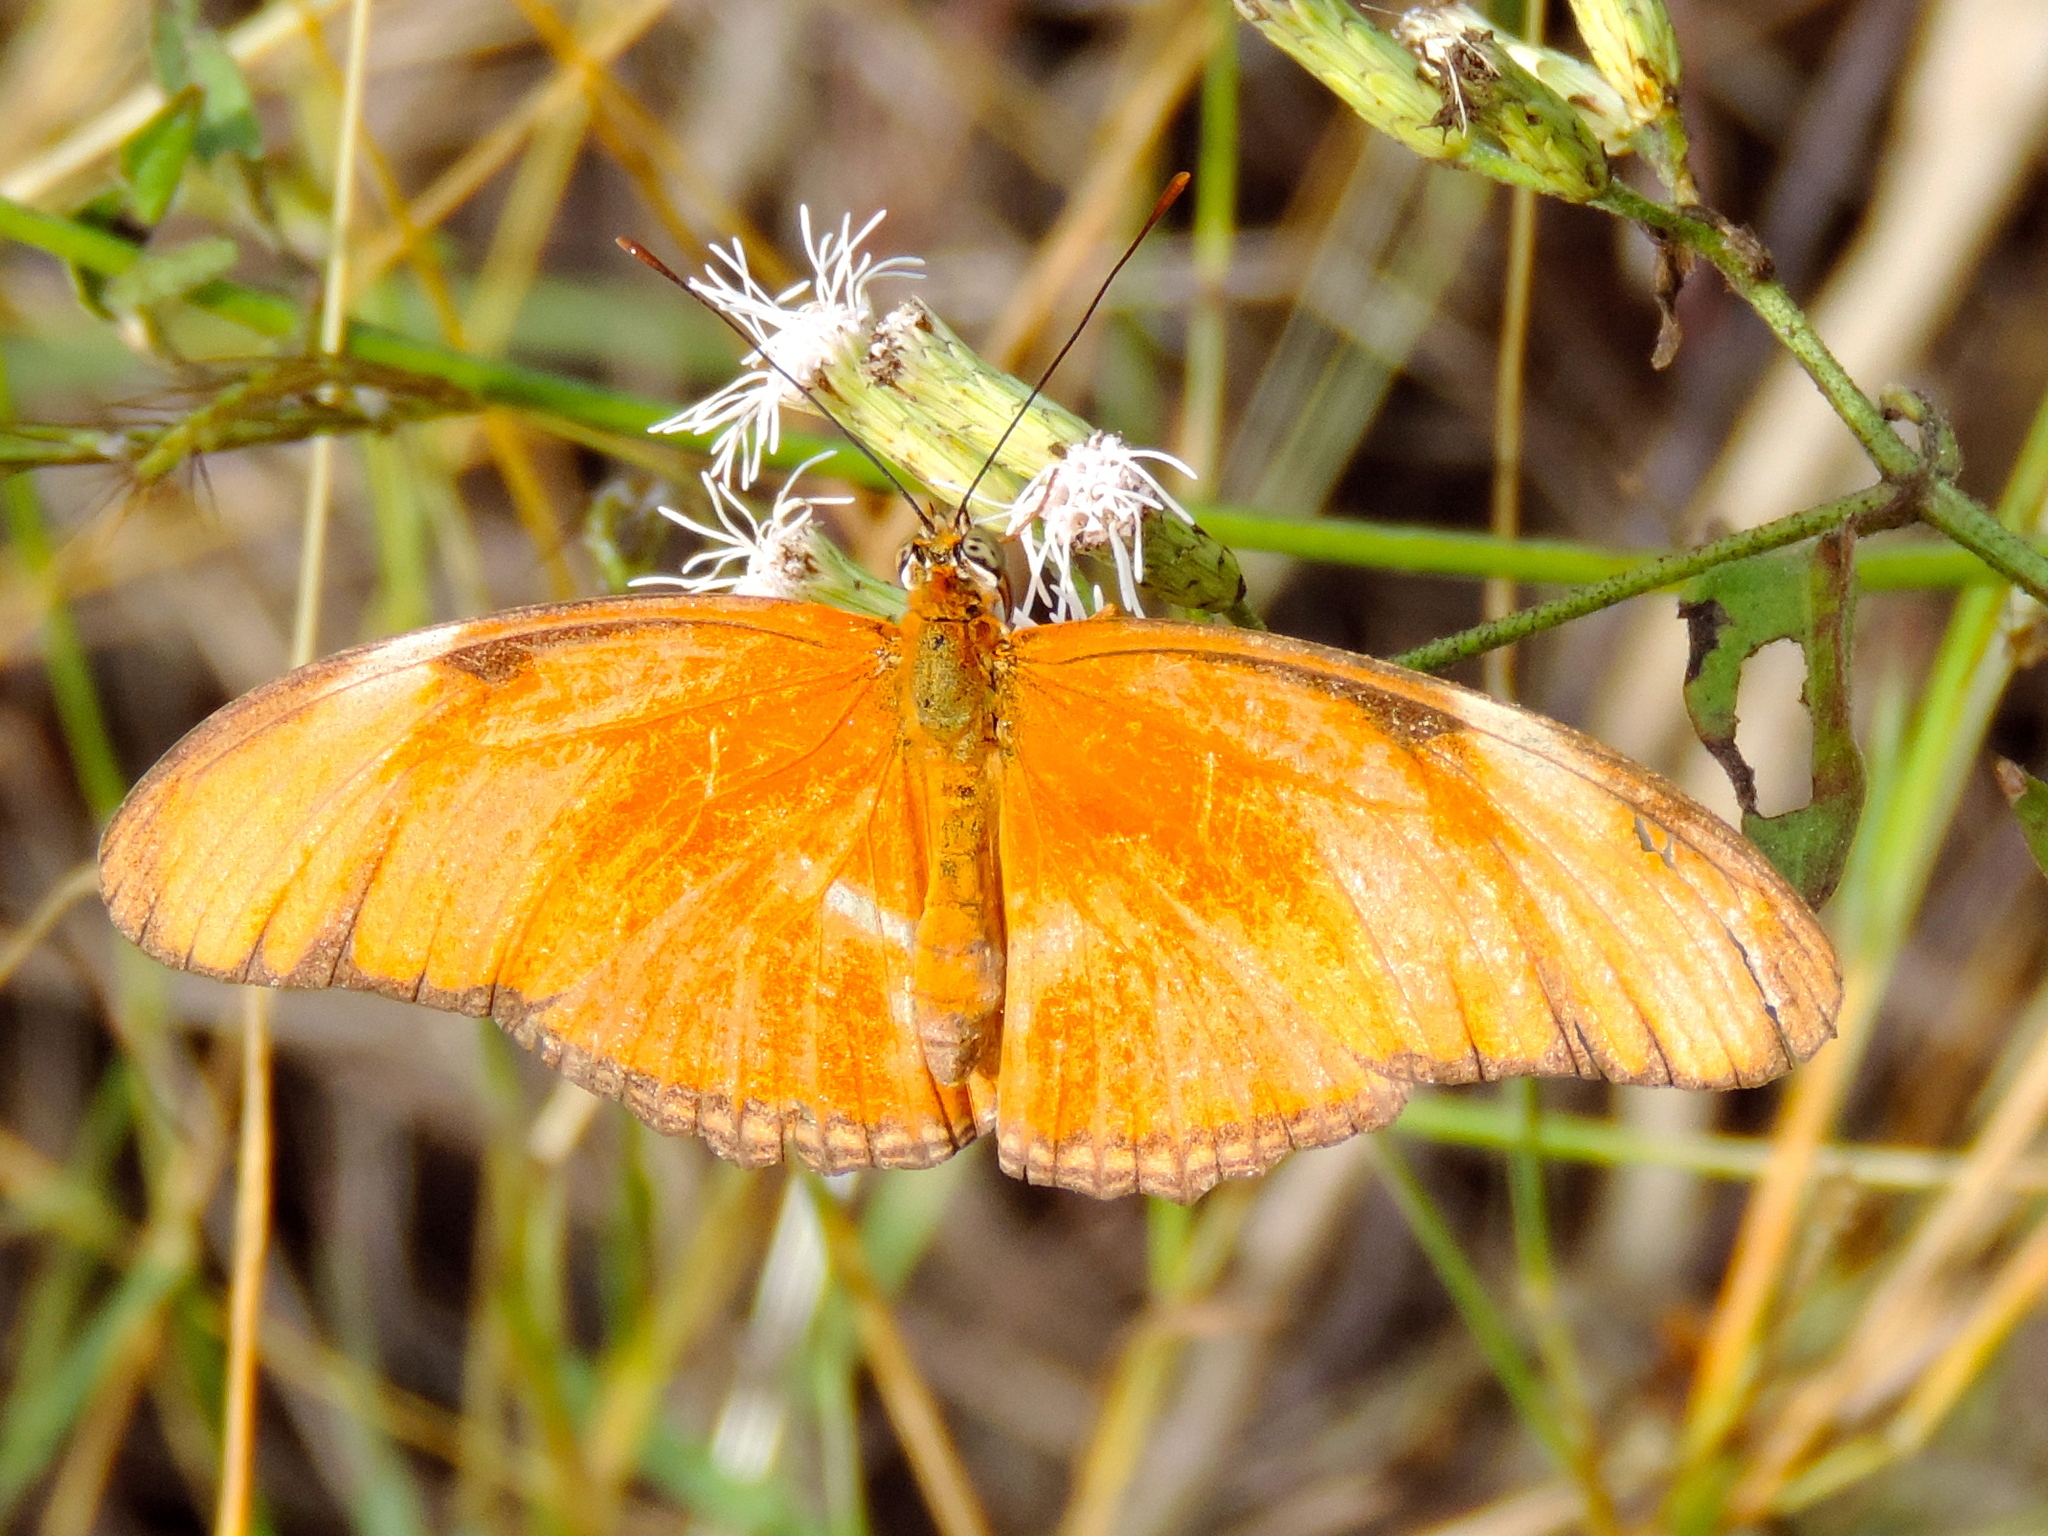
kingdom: Animalia
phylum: Arthropoda
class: Insecta
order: Lepidoptera
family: Nymphalidae
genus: Dryas
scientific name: Dryas iulia
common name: Flambeau
